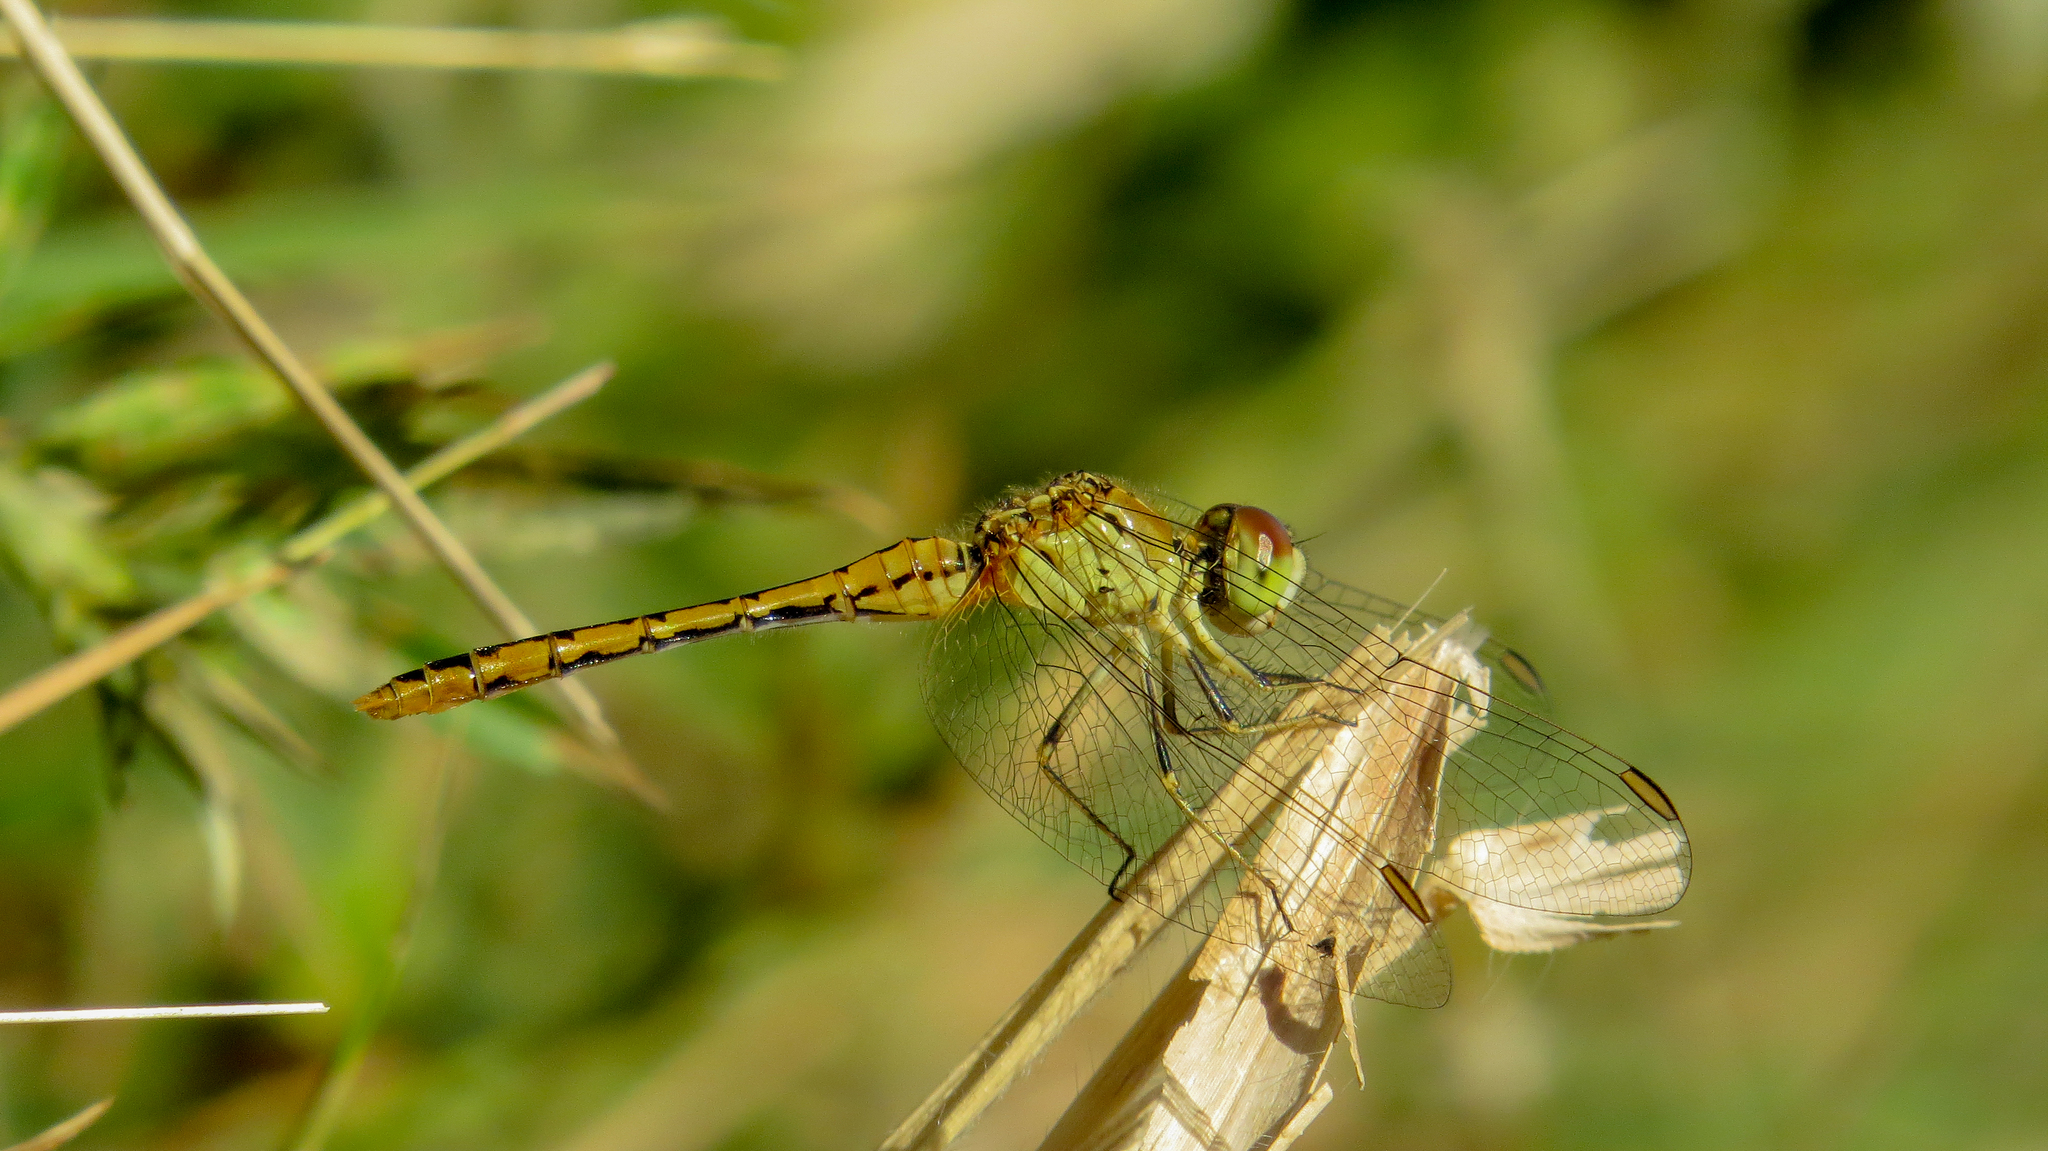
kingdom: Animalia
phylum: Arthropoda
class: Insecta
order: Odonata
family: Libellulidae
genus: Diplacodes
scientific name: Diplacodes bipunctata
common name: Red percher dragonfly
